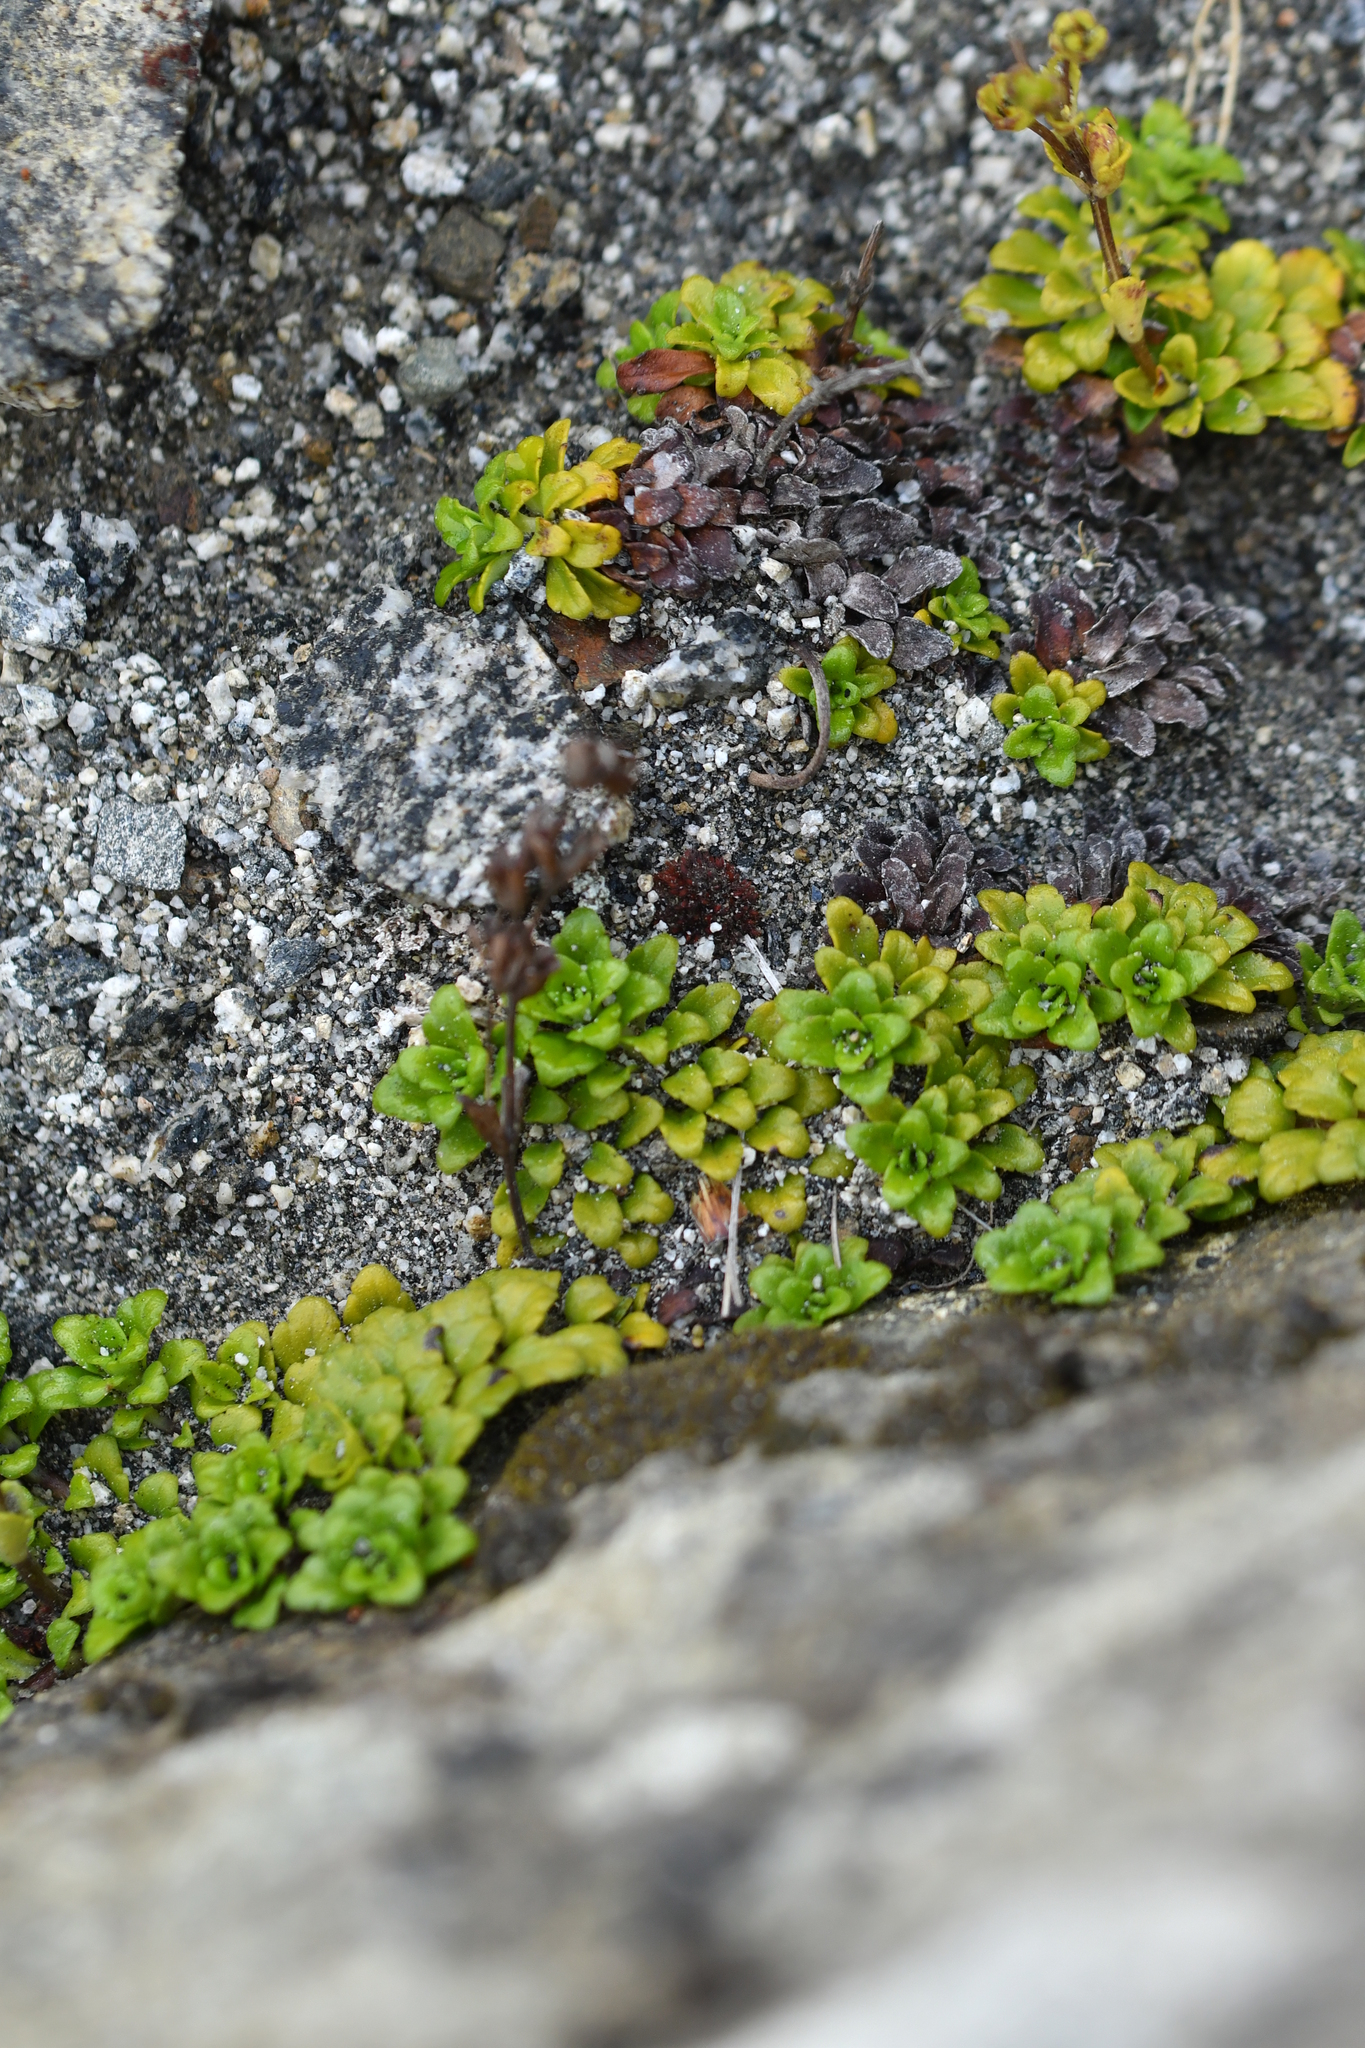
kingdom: Plantae
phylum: Tracheophyta
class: Magnoliopsida
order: Lamiales
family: Plantaginaceae
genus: Ourisia
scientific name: Ourisia caespitosa
